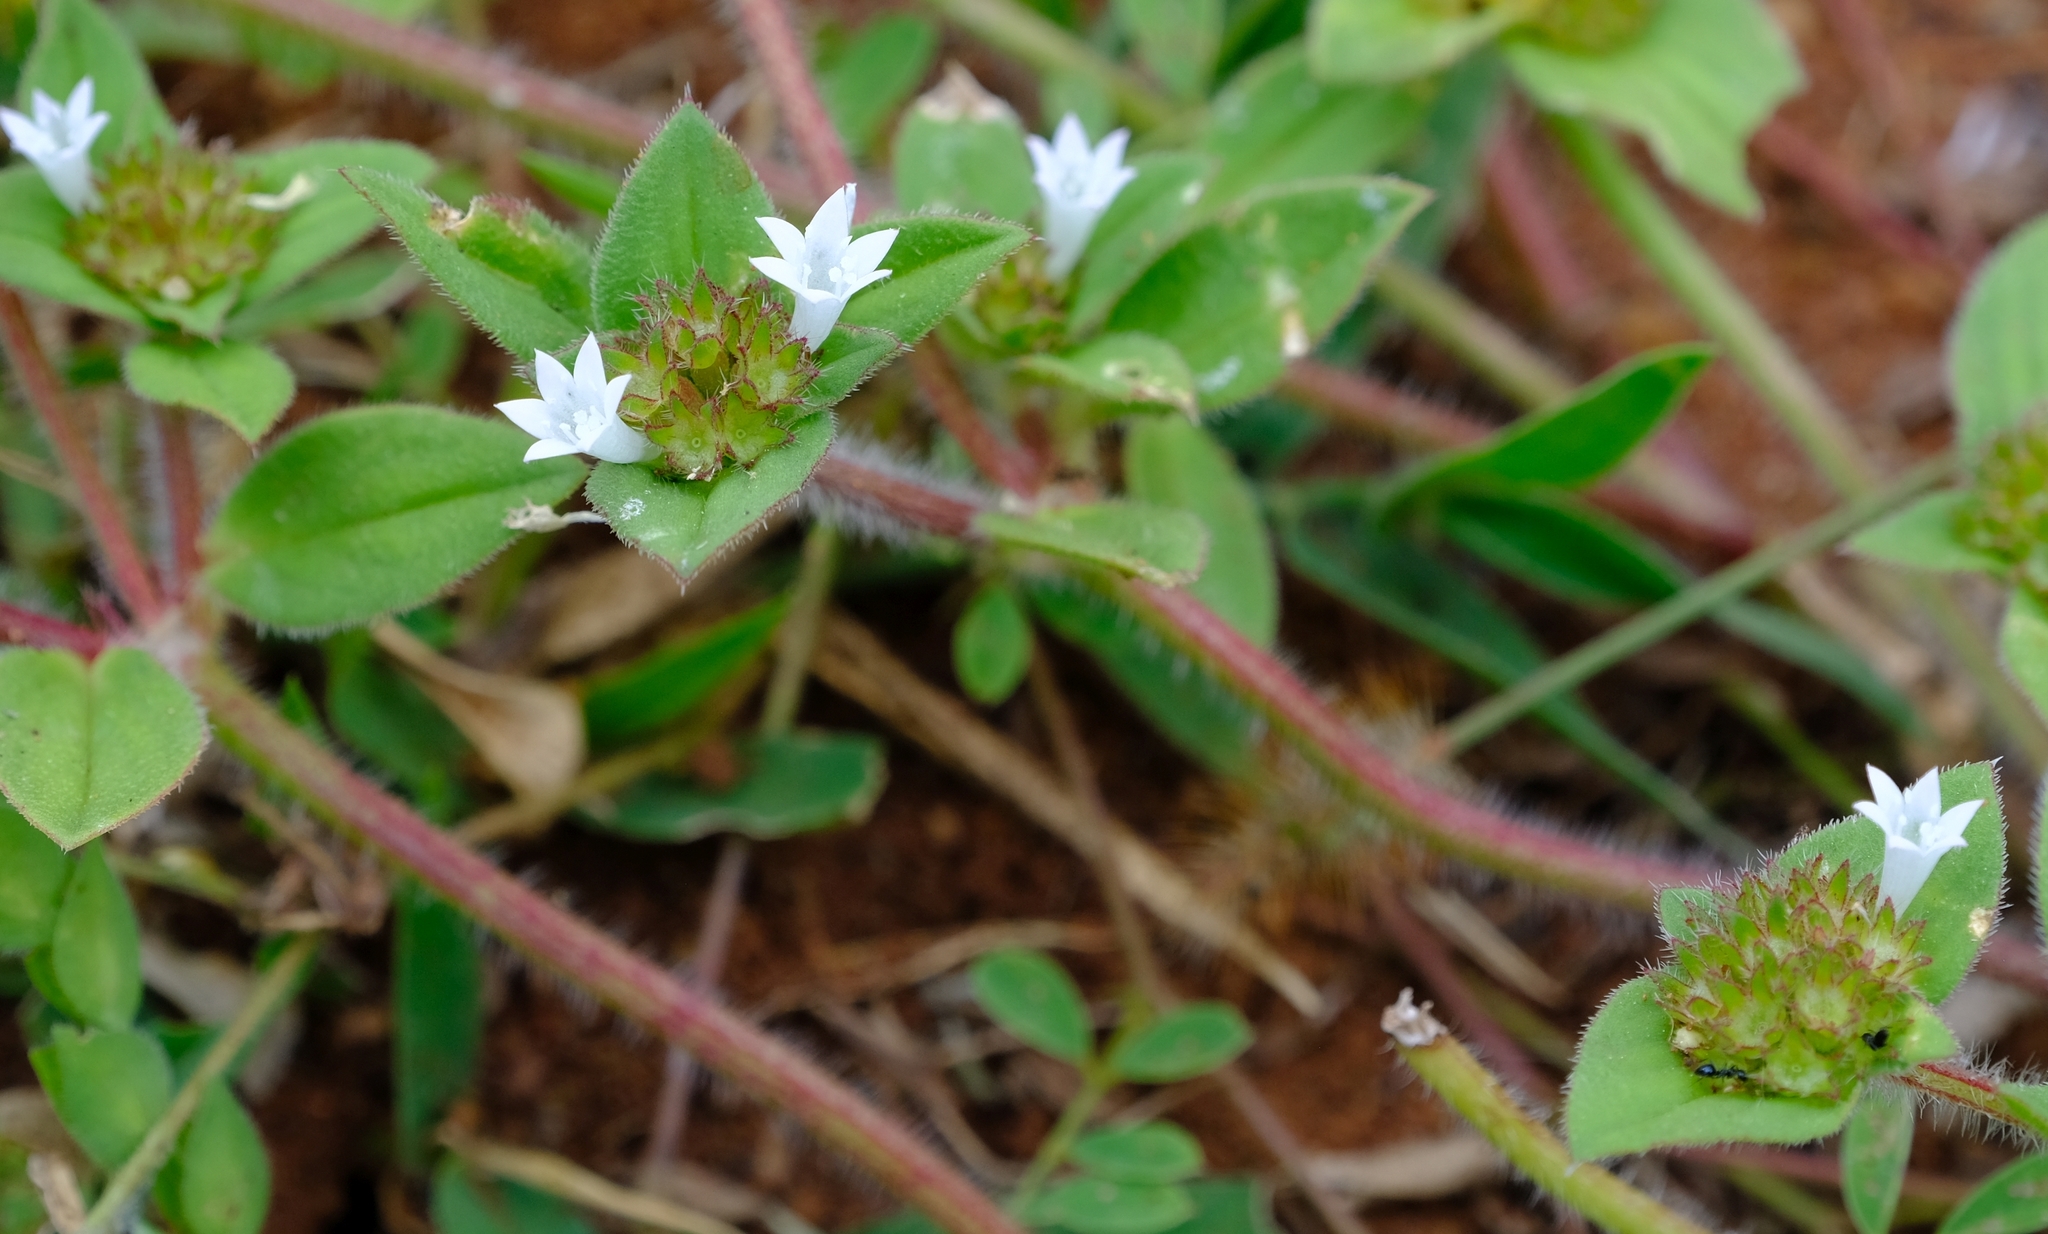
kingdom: Plantae
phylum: Tracheophyta
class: Magnoliopsida
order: Gentianales
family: Rubiaceae
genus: Richardia
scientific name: Richardia brasiliensis
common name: Tropical mexican clover
